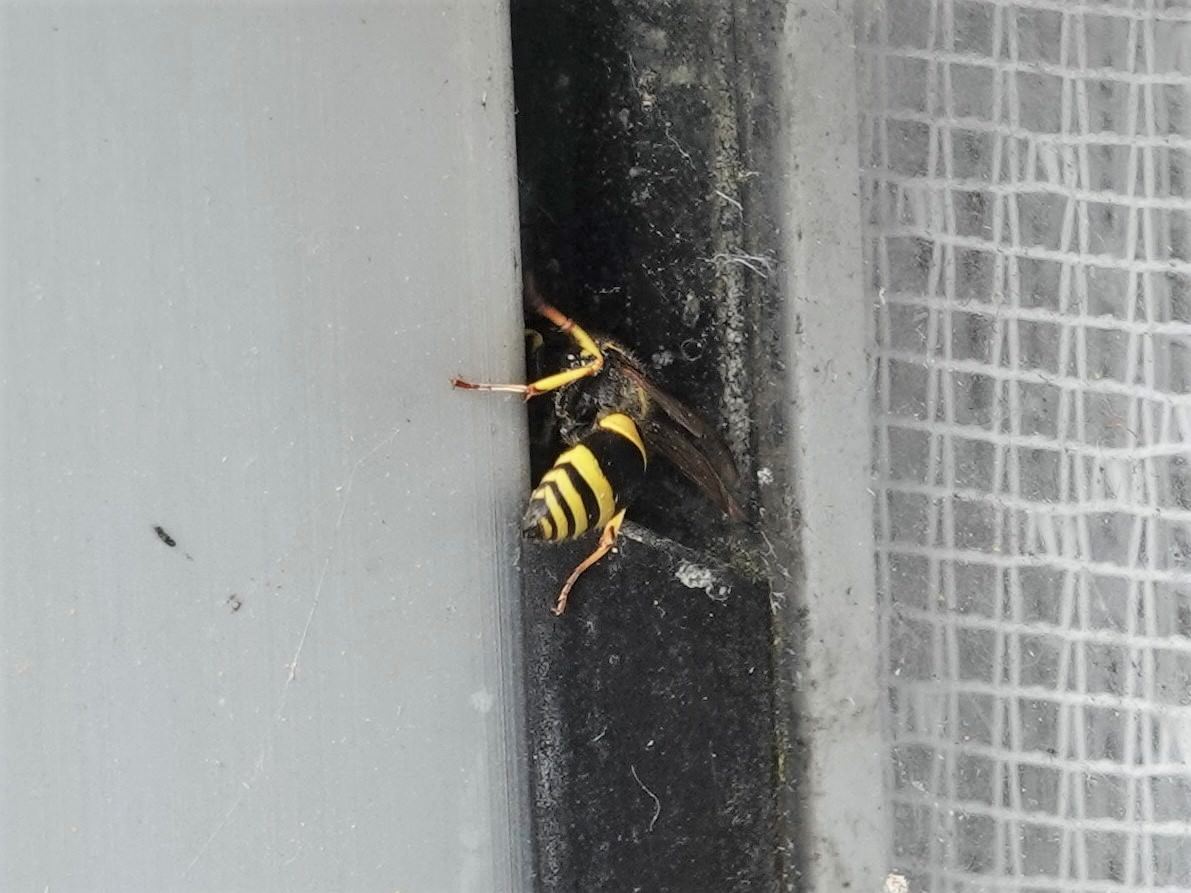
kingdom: Animalia
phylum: Arthropoda
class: Insecta
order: Hymenoptera
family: Vespidae
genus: Ancistrocerus
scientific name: Ancistrocerus gazella
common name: European tube wasp
